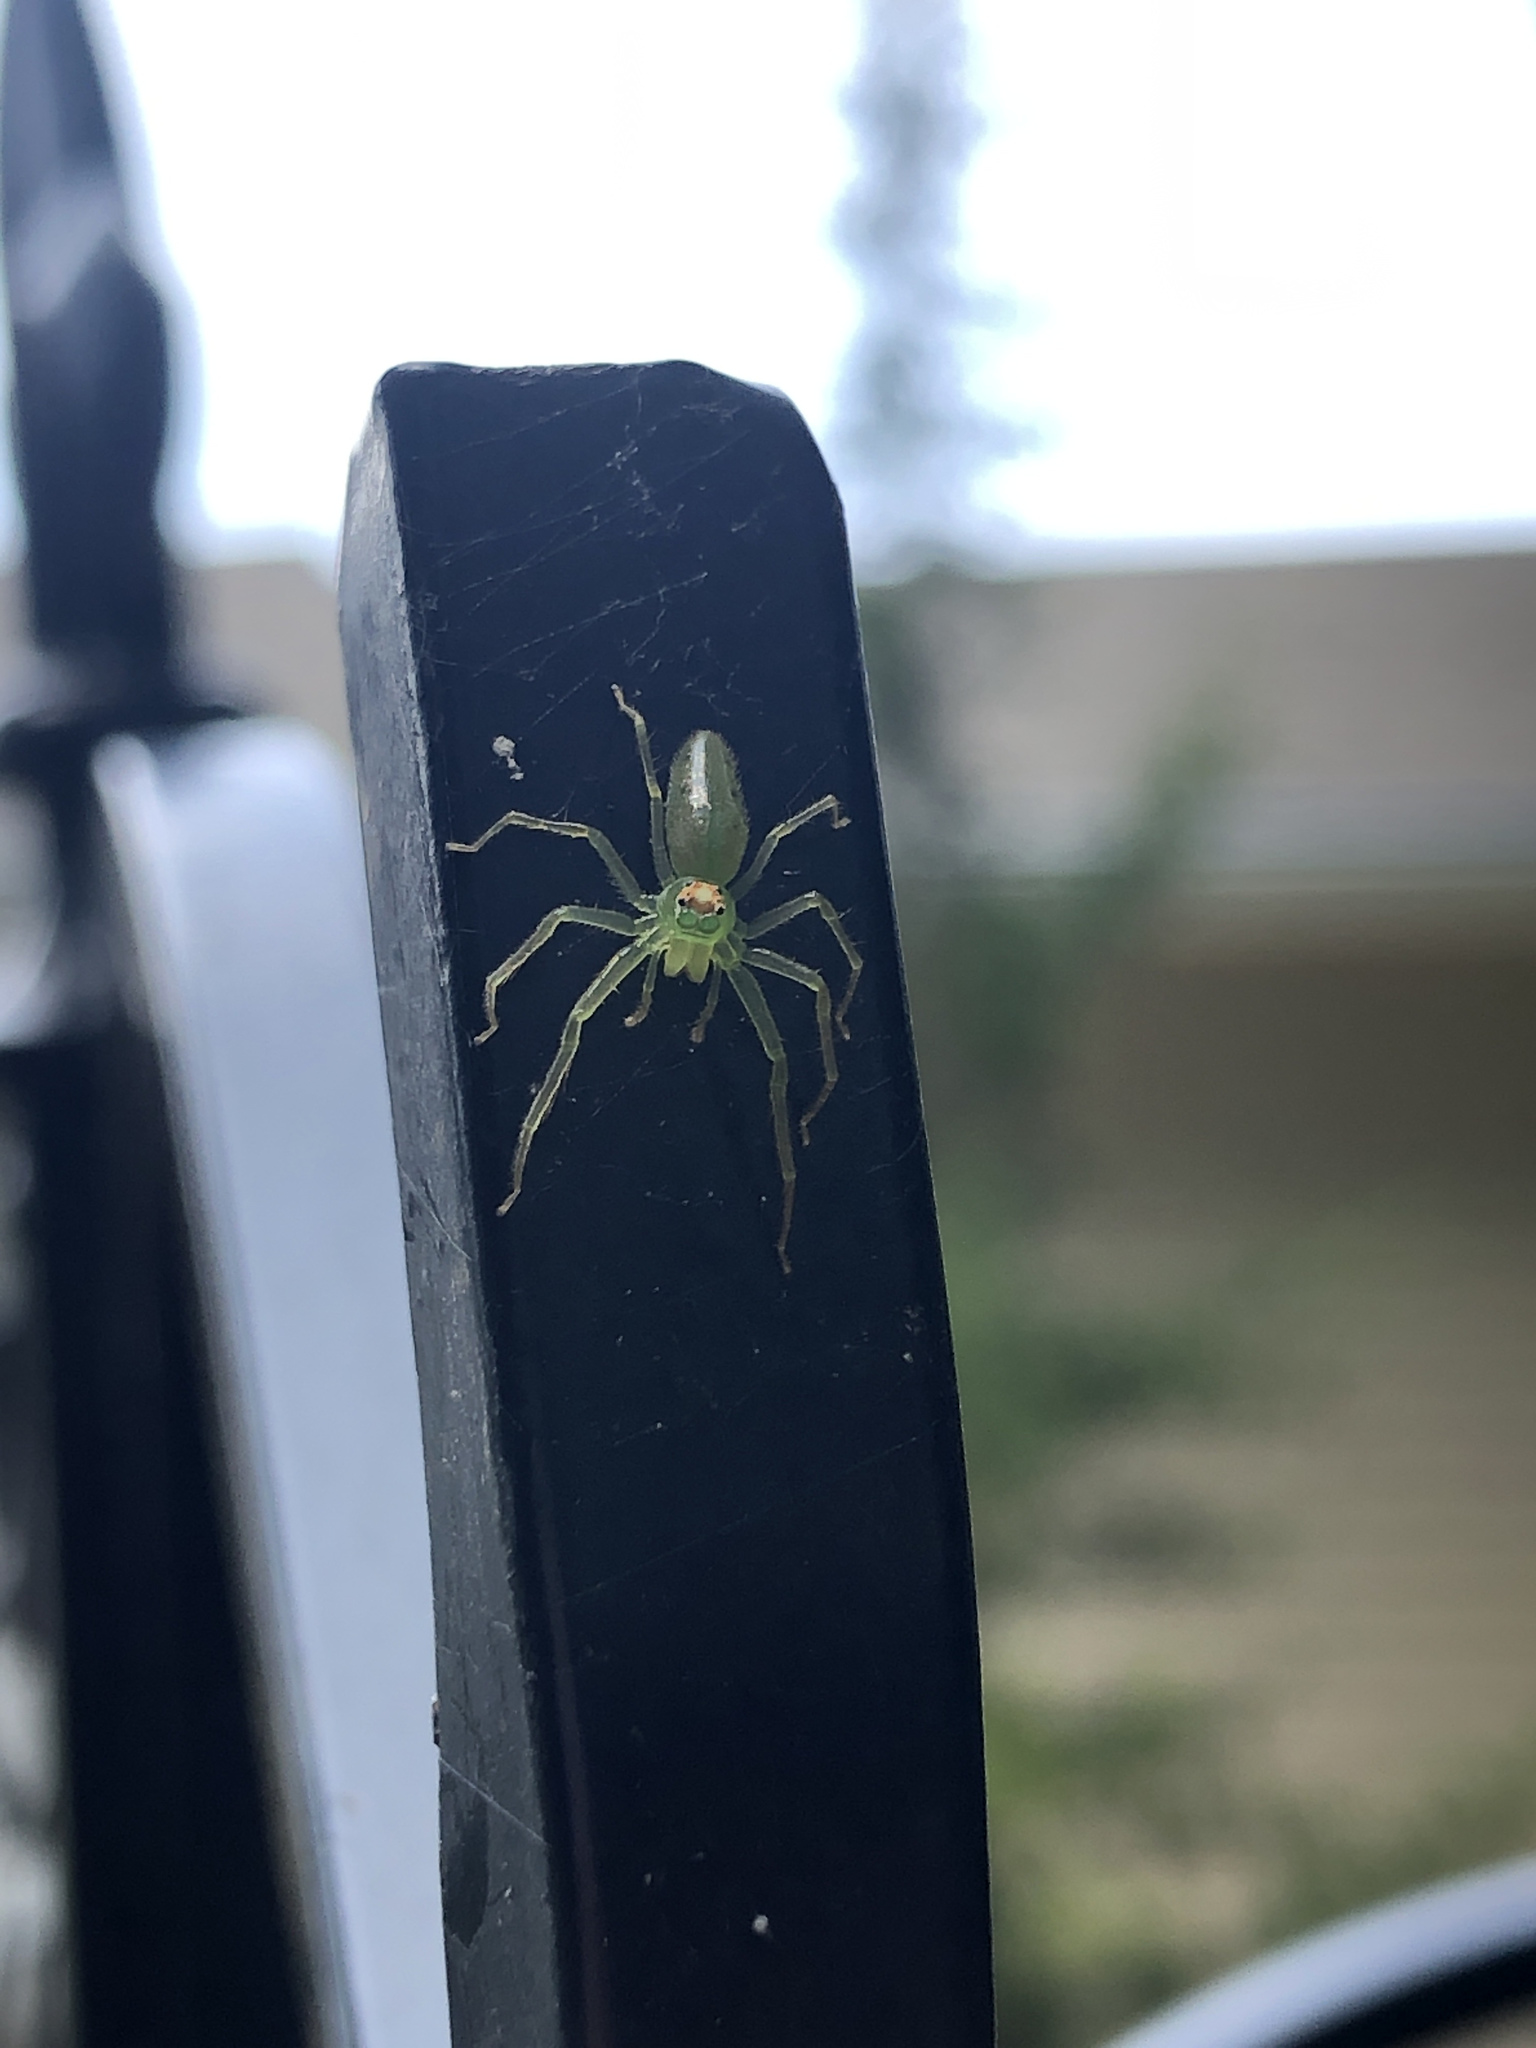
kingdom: Animalia
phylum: Arthropoda
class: Arachnida
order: Araneae
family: Salticidae
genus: Lyssomanes
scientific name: Lyssomanes viridis
